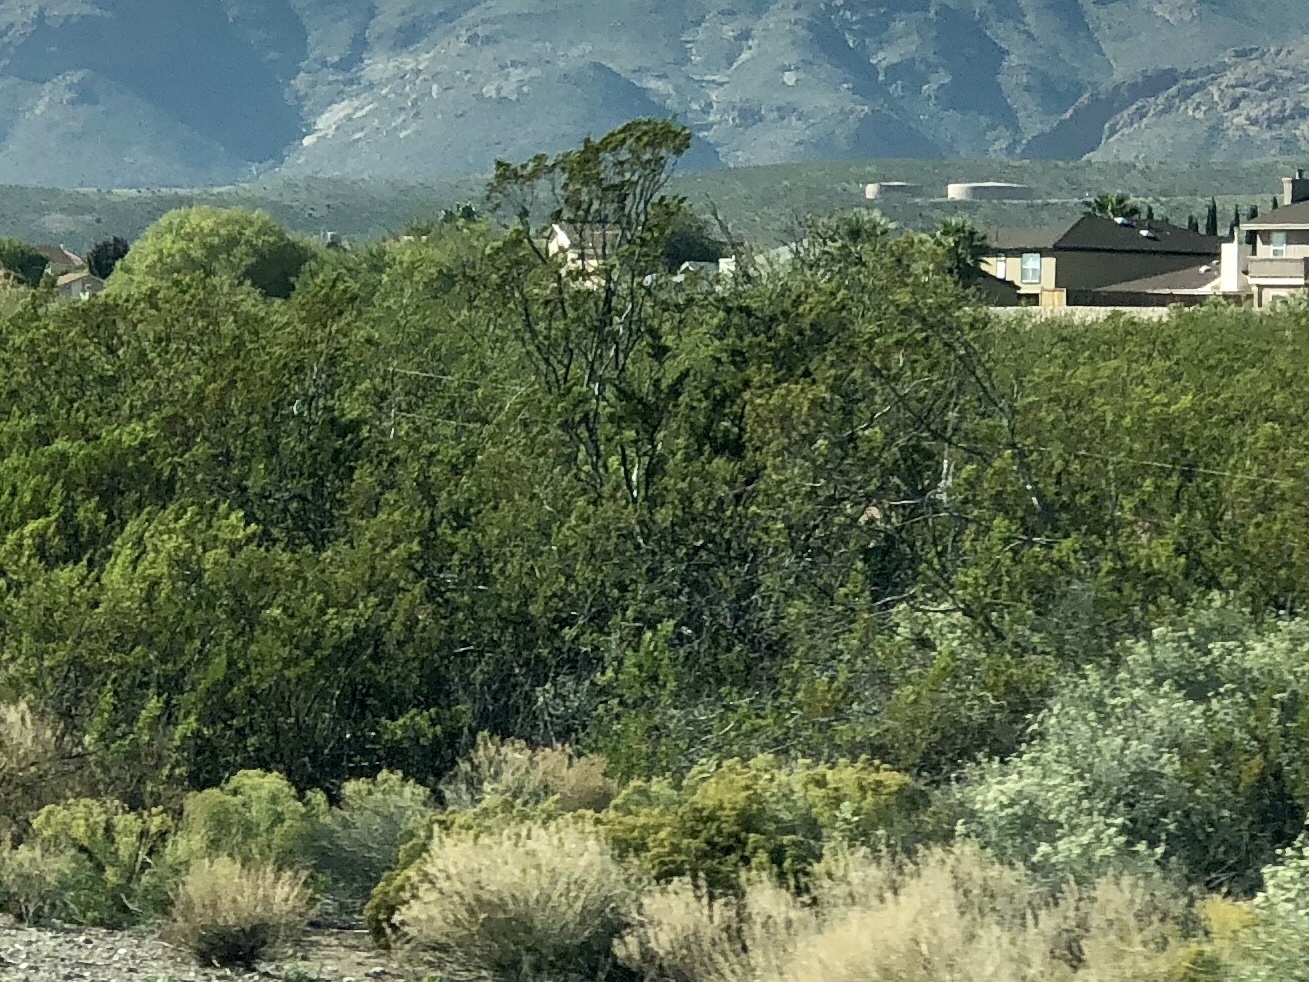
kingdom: Plantae
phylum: Tracheophyta
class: Magnoliopsida
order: Zygophyllales
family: Zygophyllaceae
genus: Larrea
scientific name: Larrea tridentata
